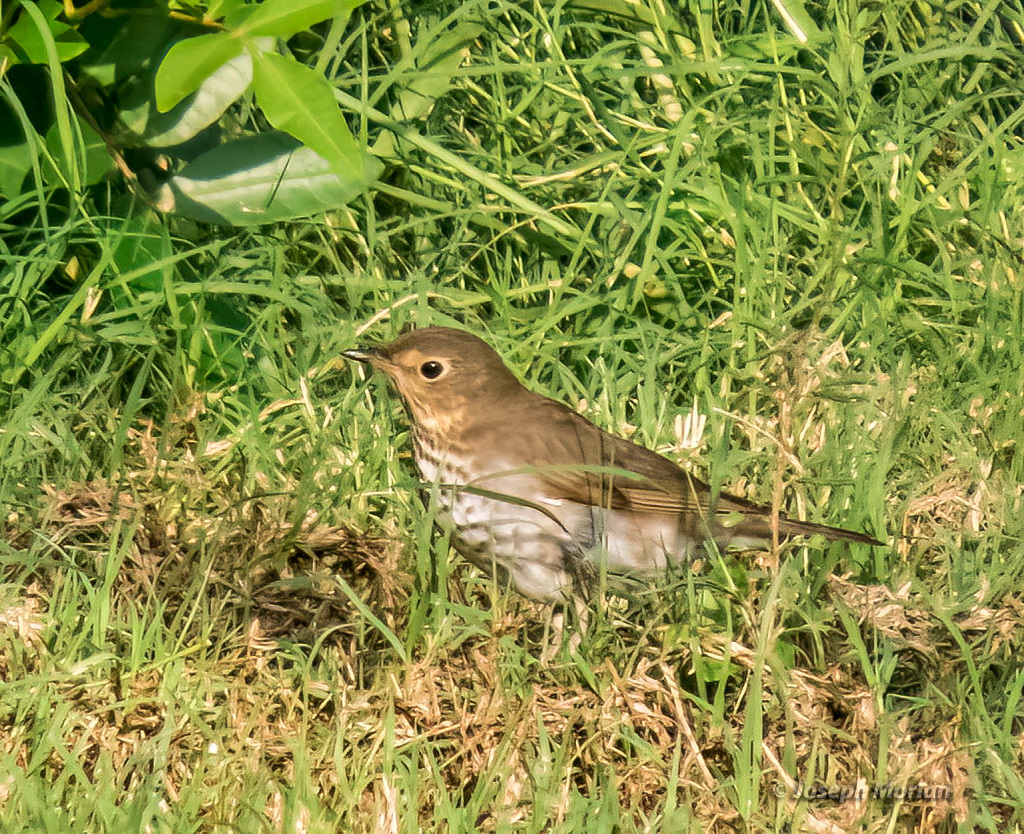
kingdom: Animalia
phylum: Chordata
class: Aves
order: Passeriformes
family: Turdidae
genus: Catharus
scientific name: Catharus ustulatus
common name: Swainson's thrush
